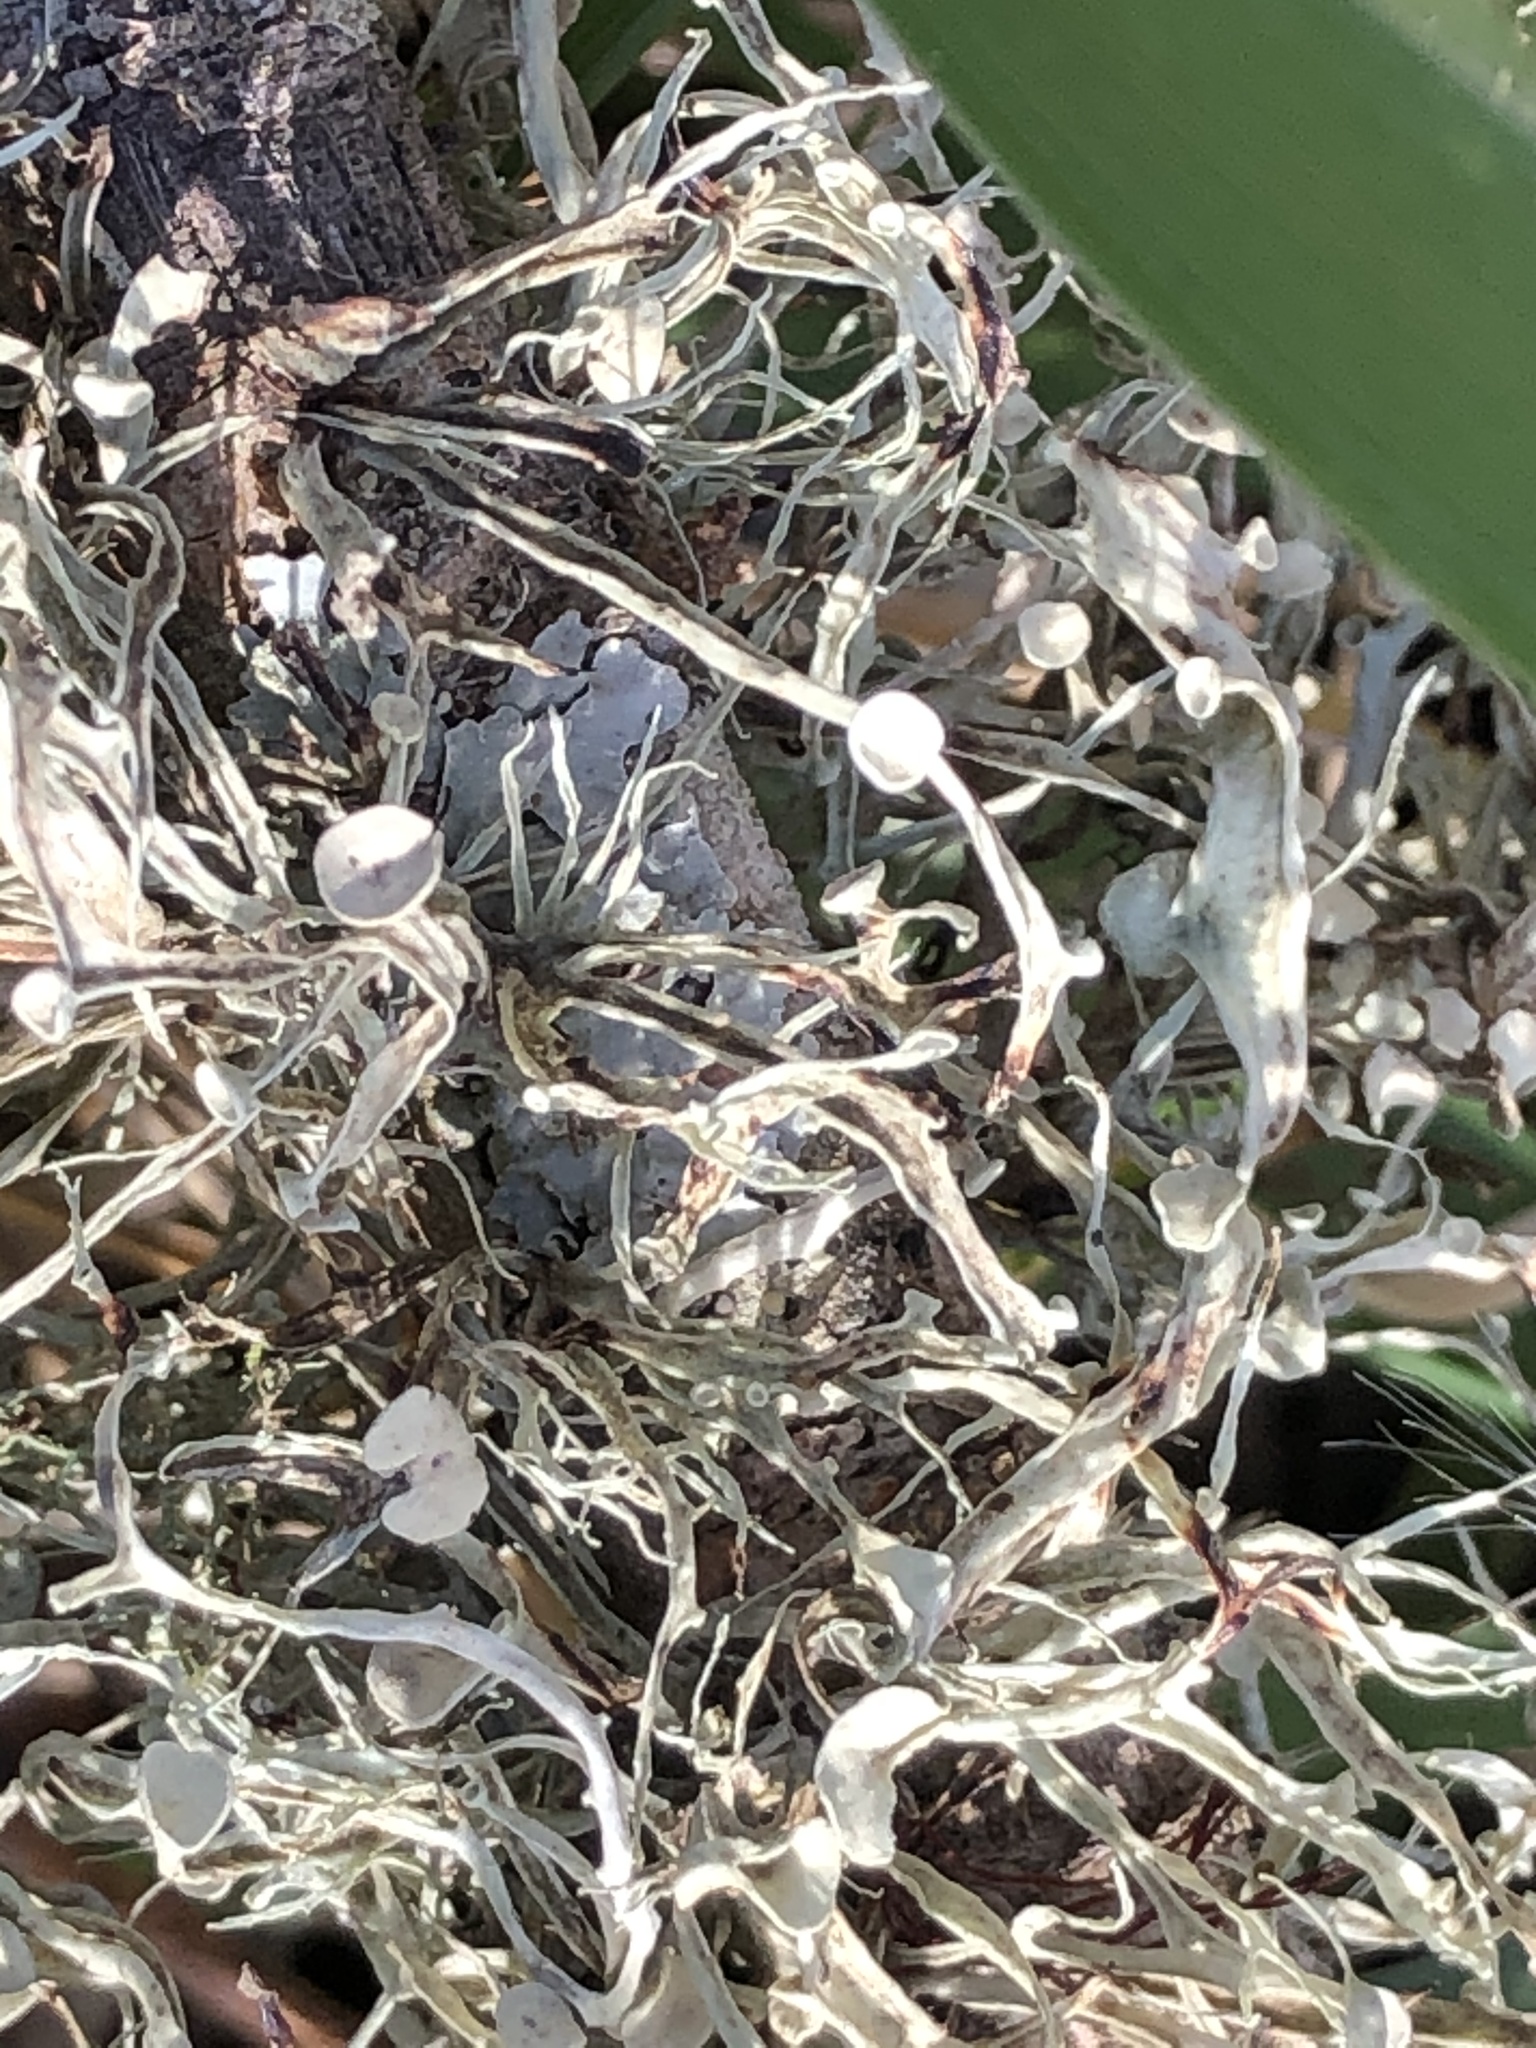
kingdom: Fungi
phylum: Ascomycota
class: Lecanoromycetes
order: Lecanorales
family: Ramalinaceae
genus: Ramalina
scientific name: Ramalina leptocarpha
